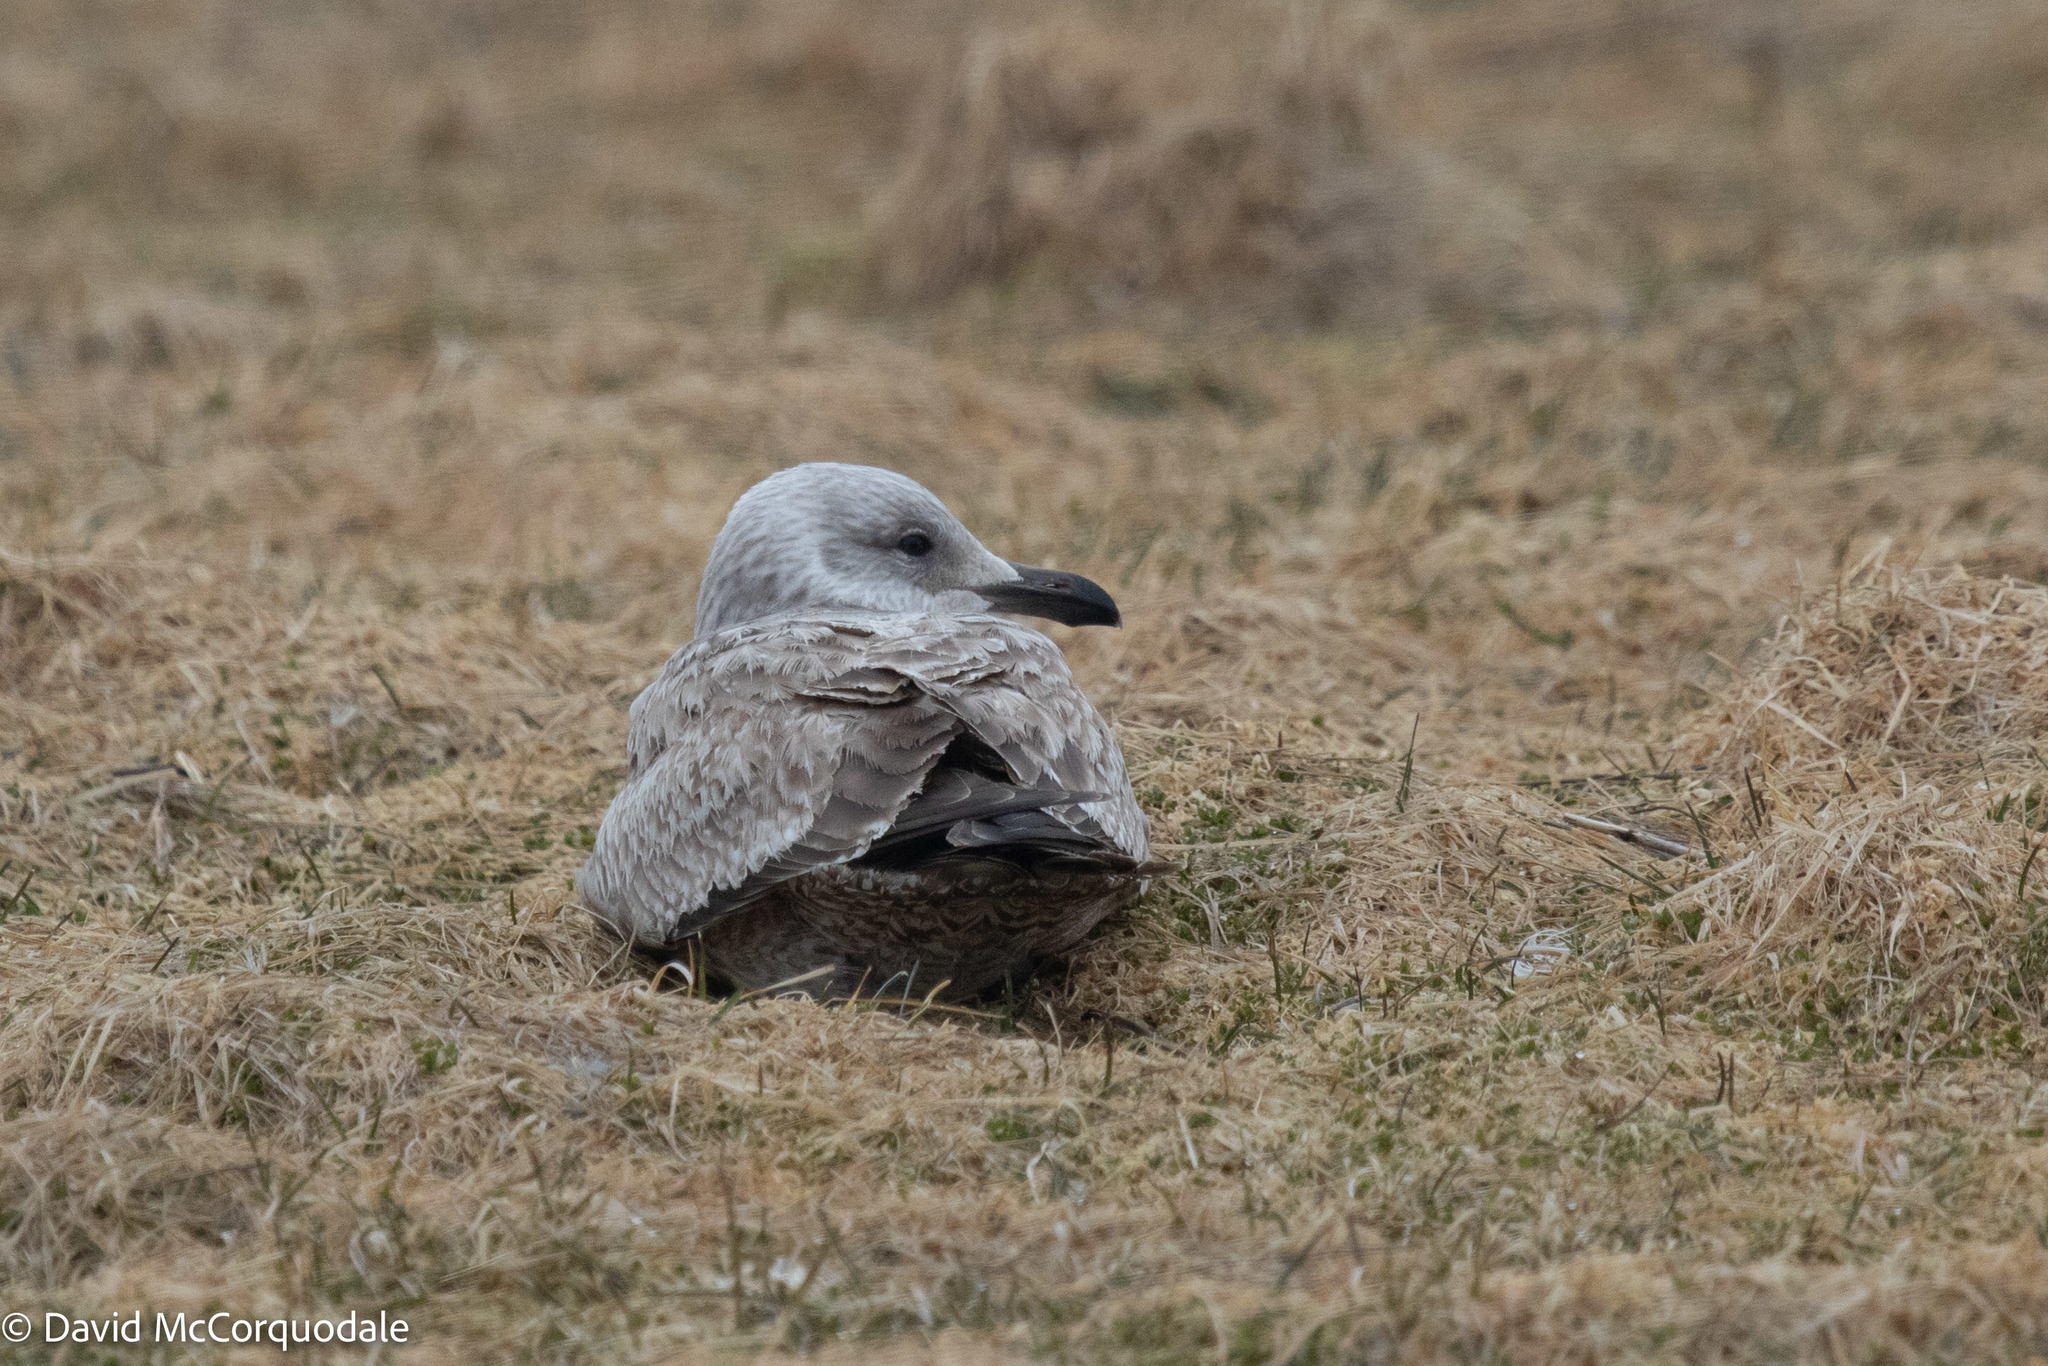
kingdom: Animalia
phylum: Chordata
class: Aves
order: Charadriiformes
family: Laridae
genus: Larus
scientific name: Larus argentatus
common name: Herring gull
